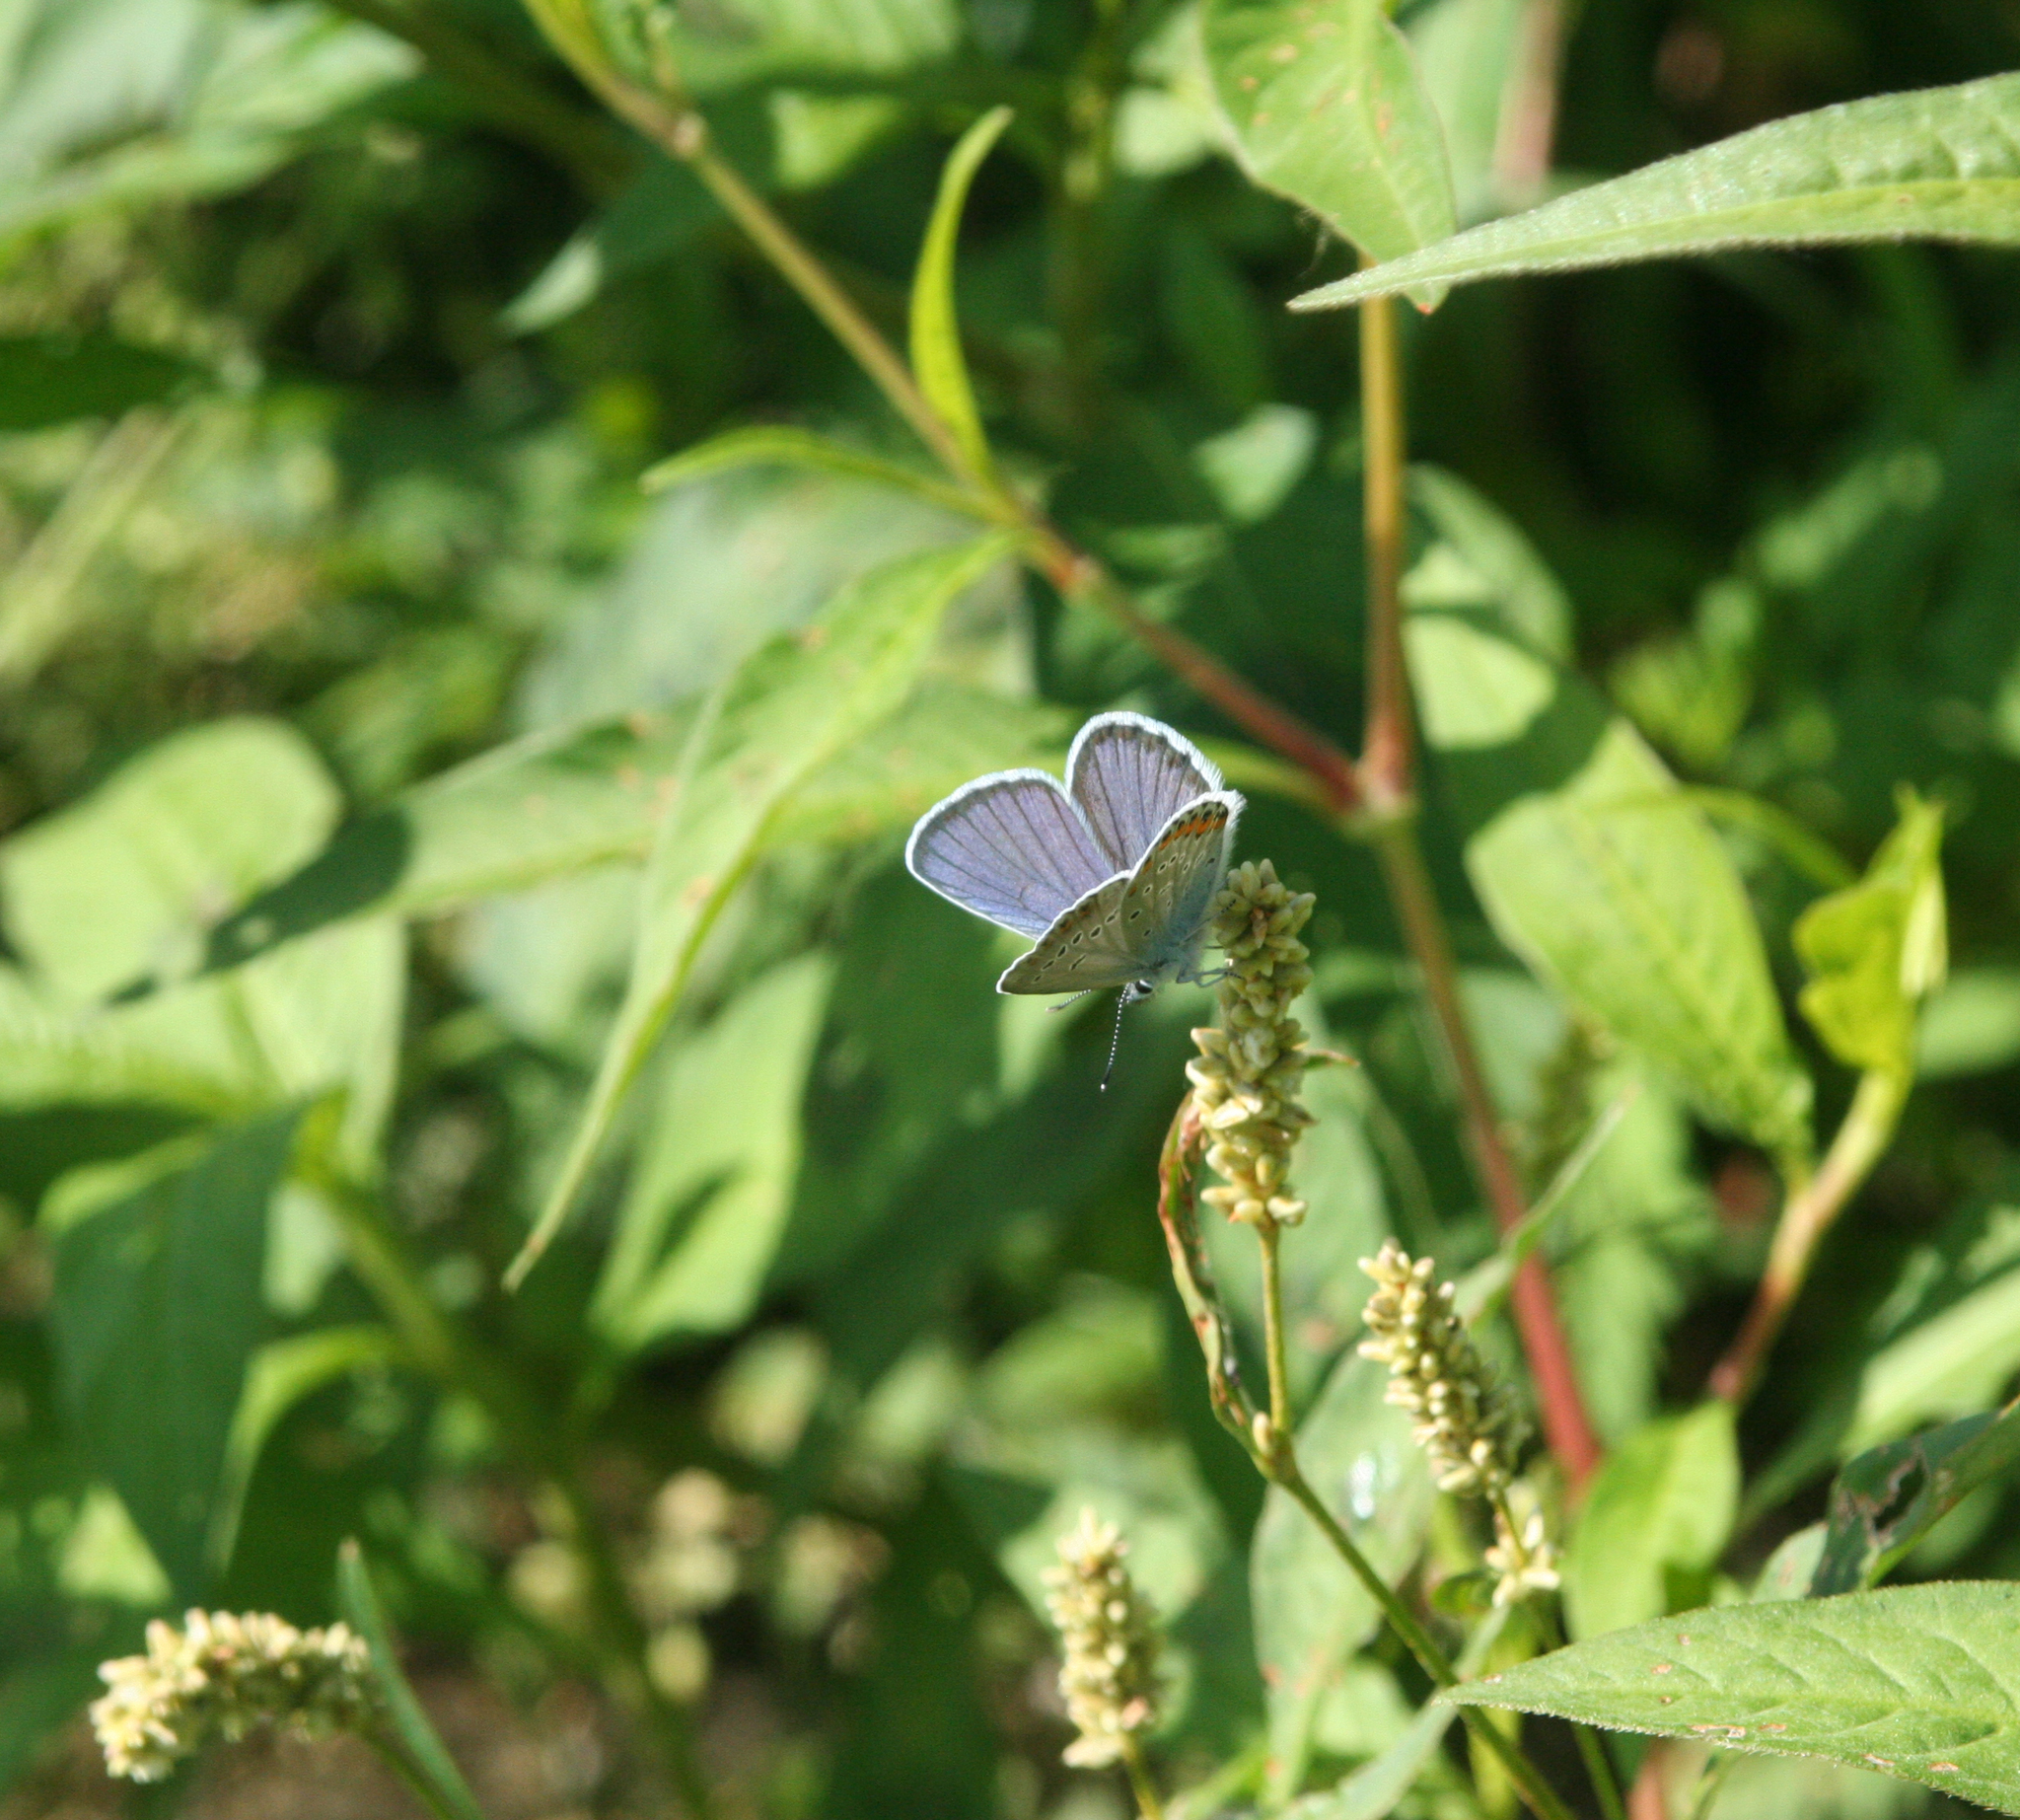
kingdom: Animalia
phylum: Arthropoda
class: Insecta
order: Lepidoptera
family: Lycaenidae
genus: Lycaeides
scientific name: Lycaeides idas
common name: Northern blue
